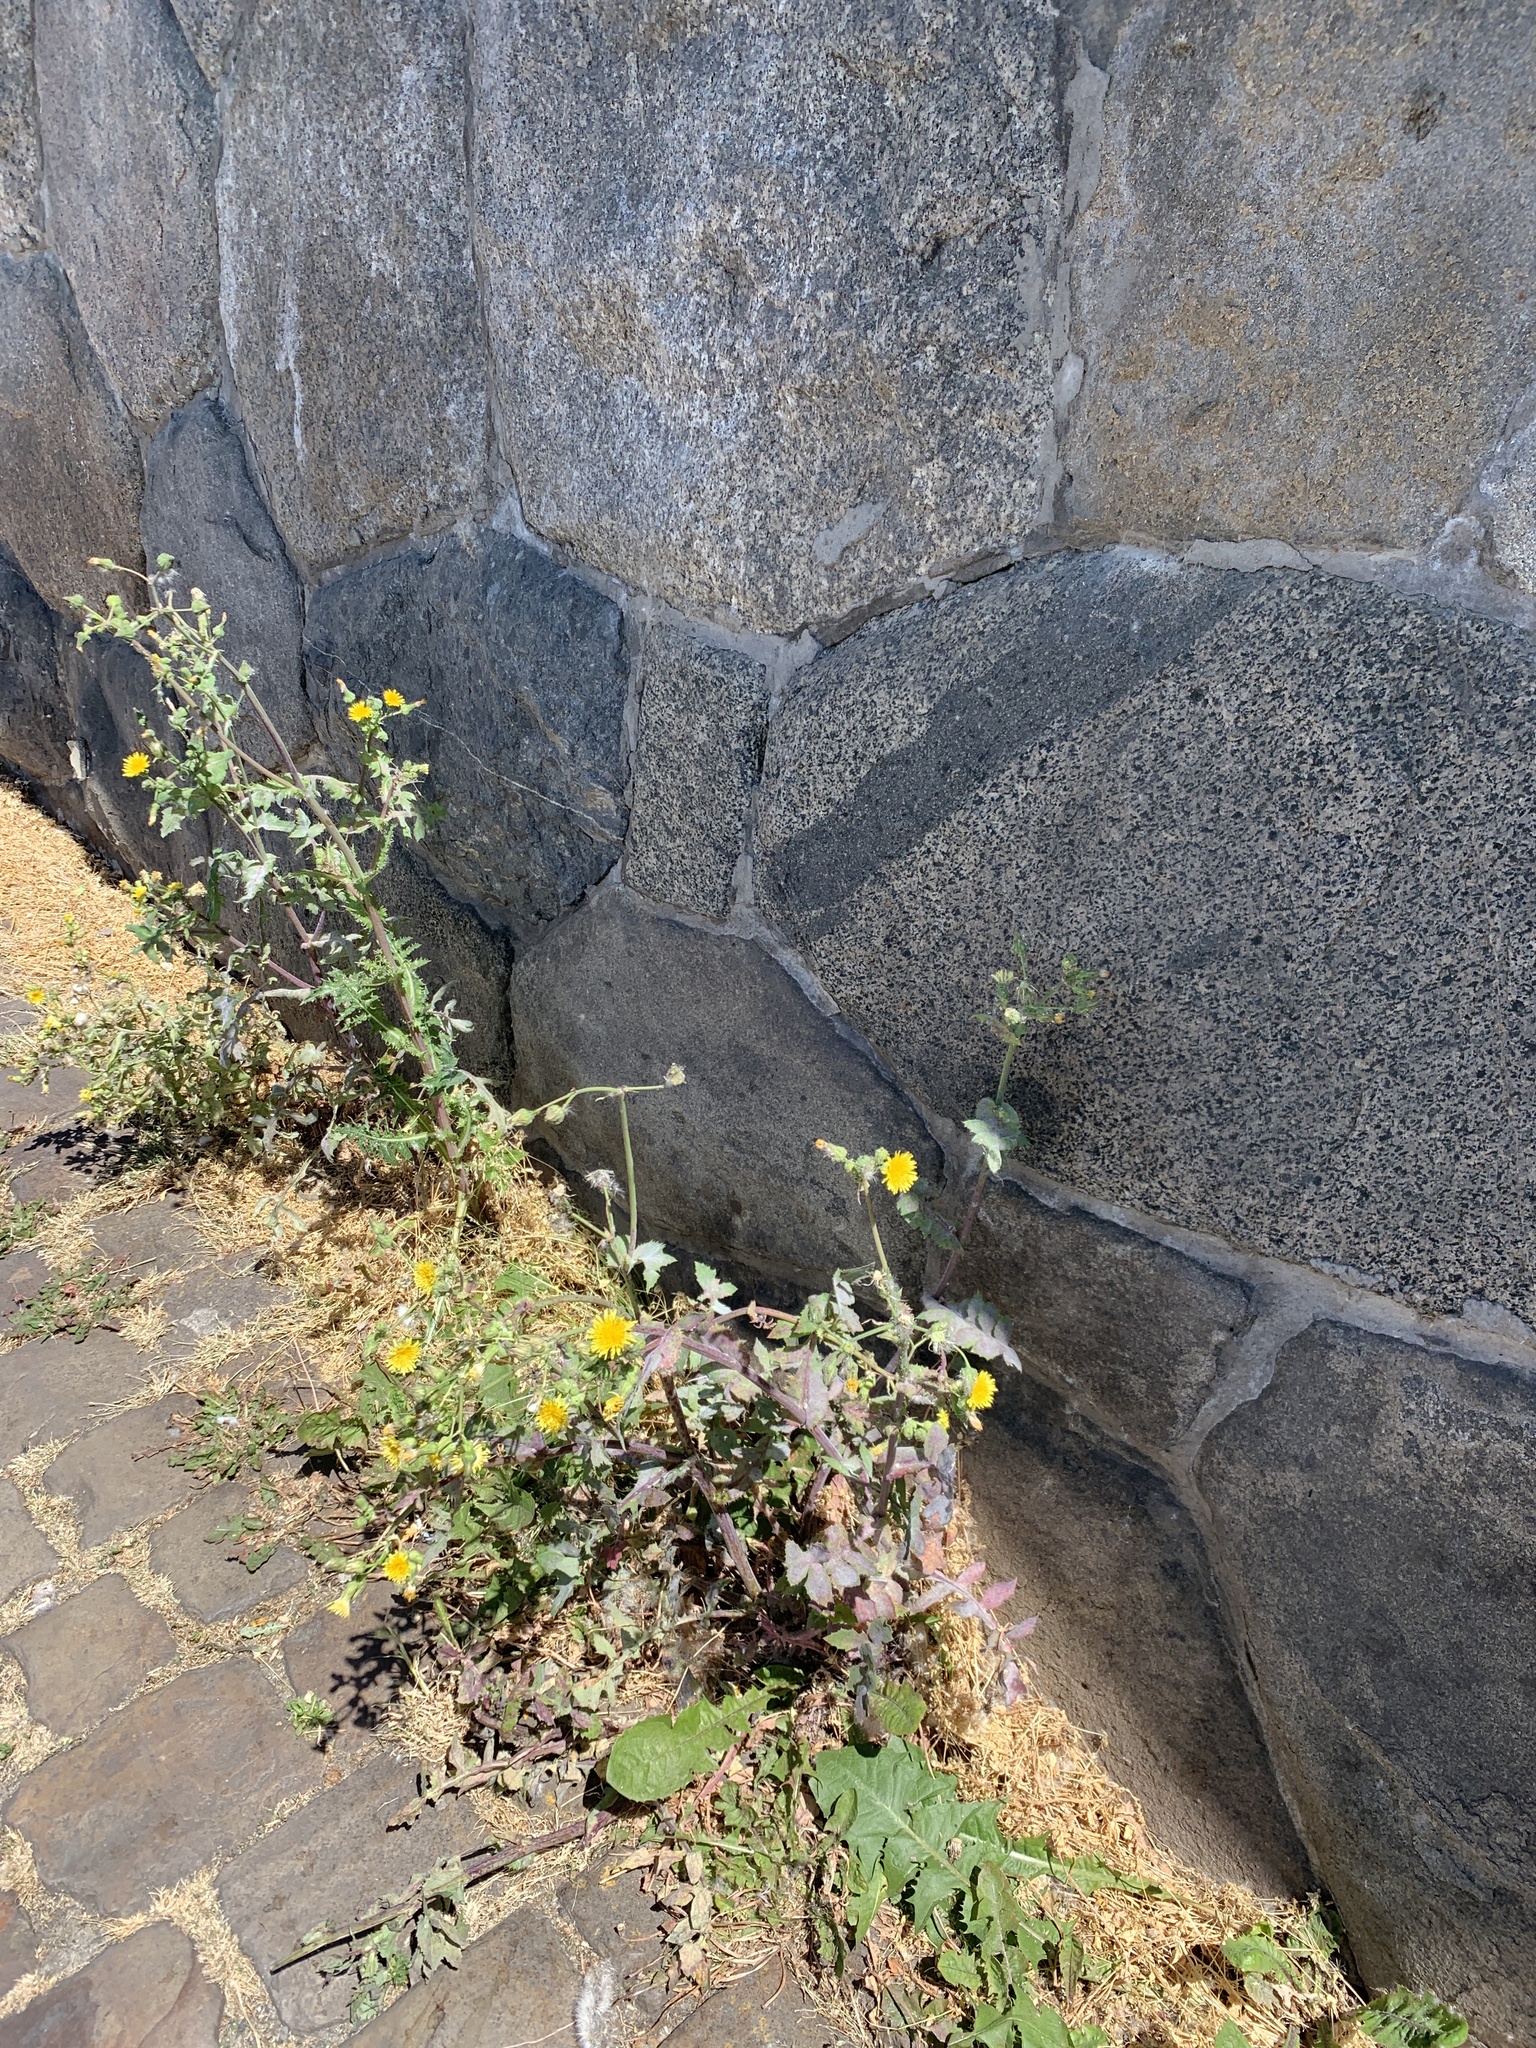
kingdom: Plantae
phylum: Tracheophyta
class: Magnoliopsida
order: Asterales
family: Asteraceae
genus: Sonchus
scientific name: Sonchus oleraceus
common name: Common sowthistle
